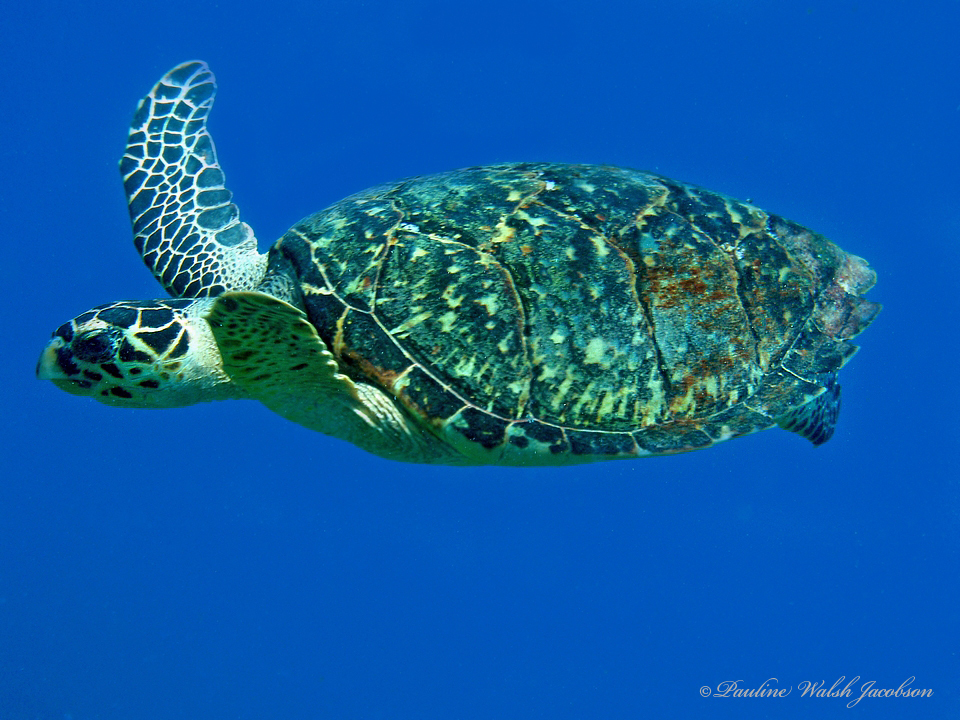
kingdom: Animalia
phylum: Chordata
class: Testudines
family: Cheloniidae
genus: Eretmochelys
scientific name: Eretmochelys imbricata
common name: Hawksbill turtle
